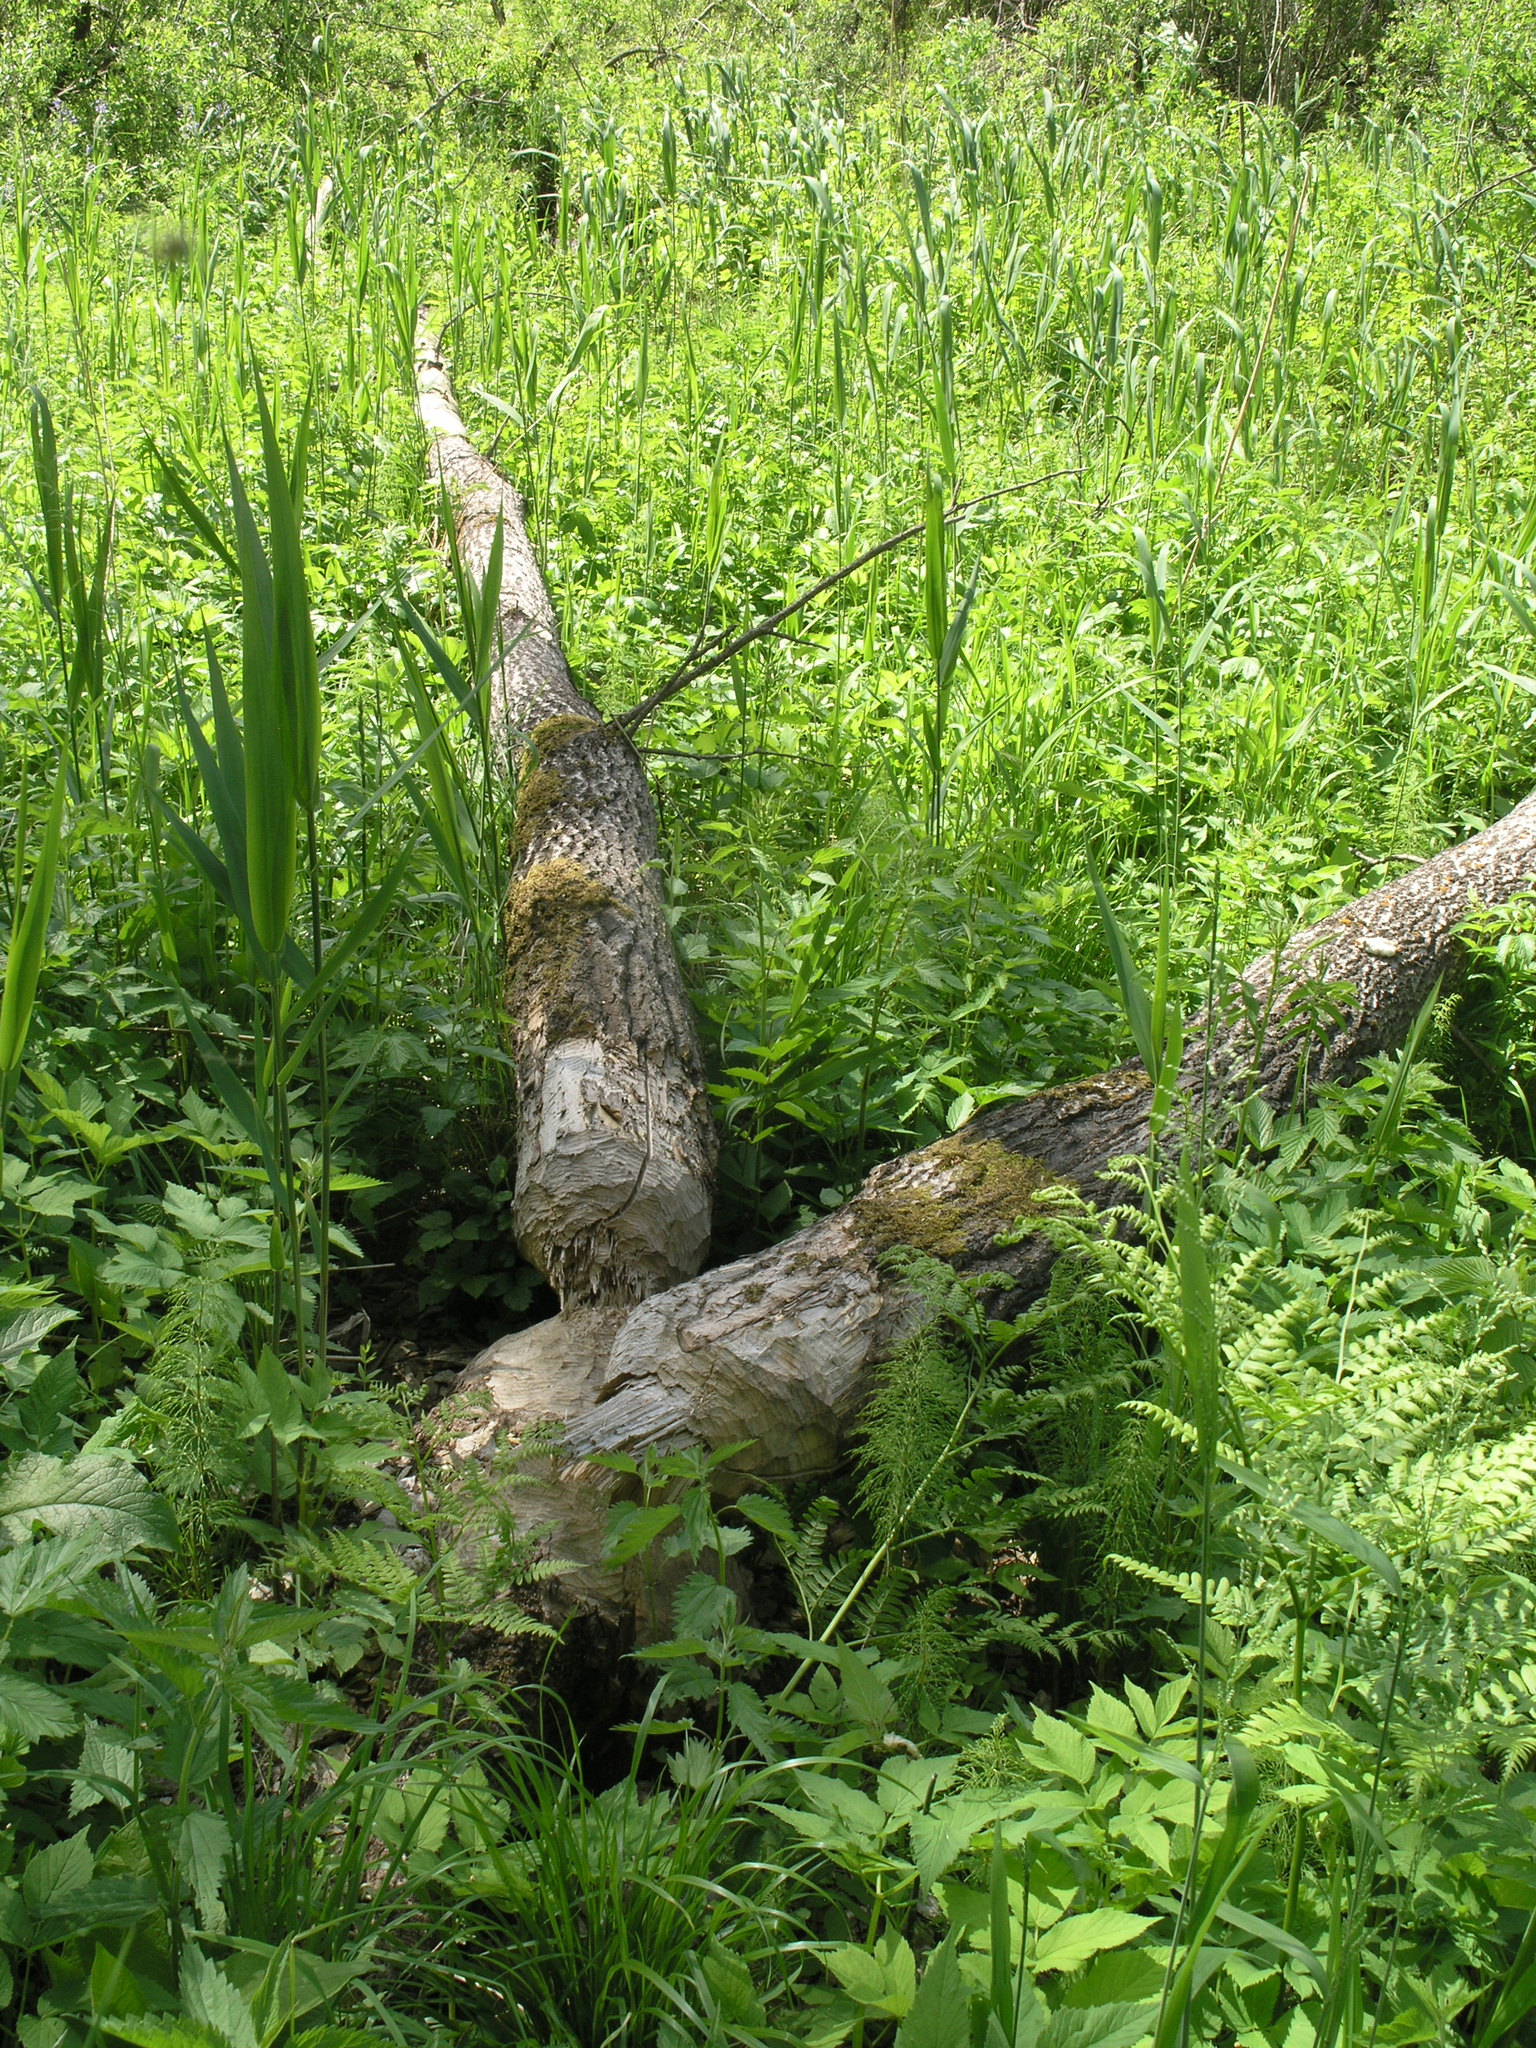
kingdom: Plantae
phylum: Tracheophyta
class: Magnoliopsida
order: Malpighiales
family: Salicaceae
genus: Populus
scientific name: Populus tremula
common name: European aspen
